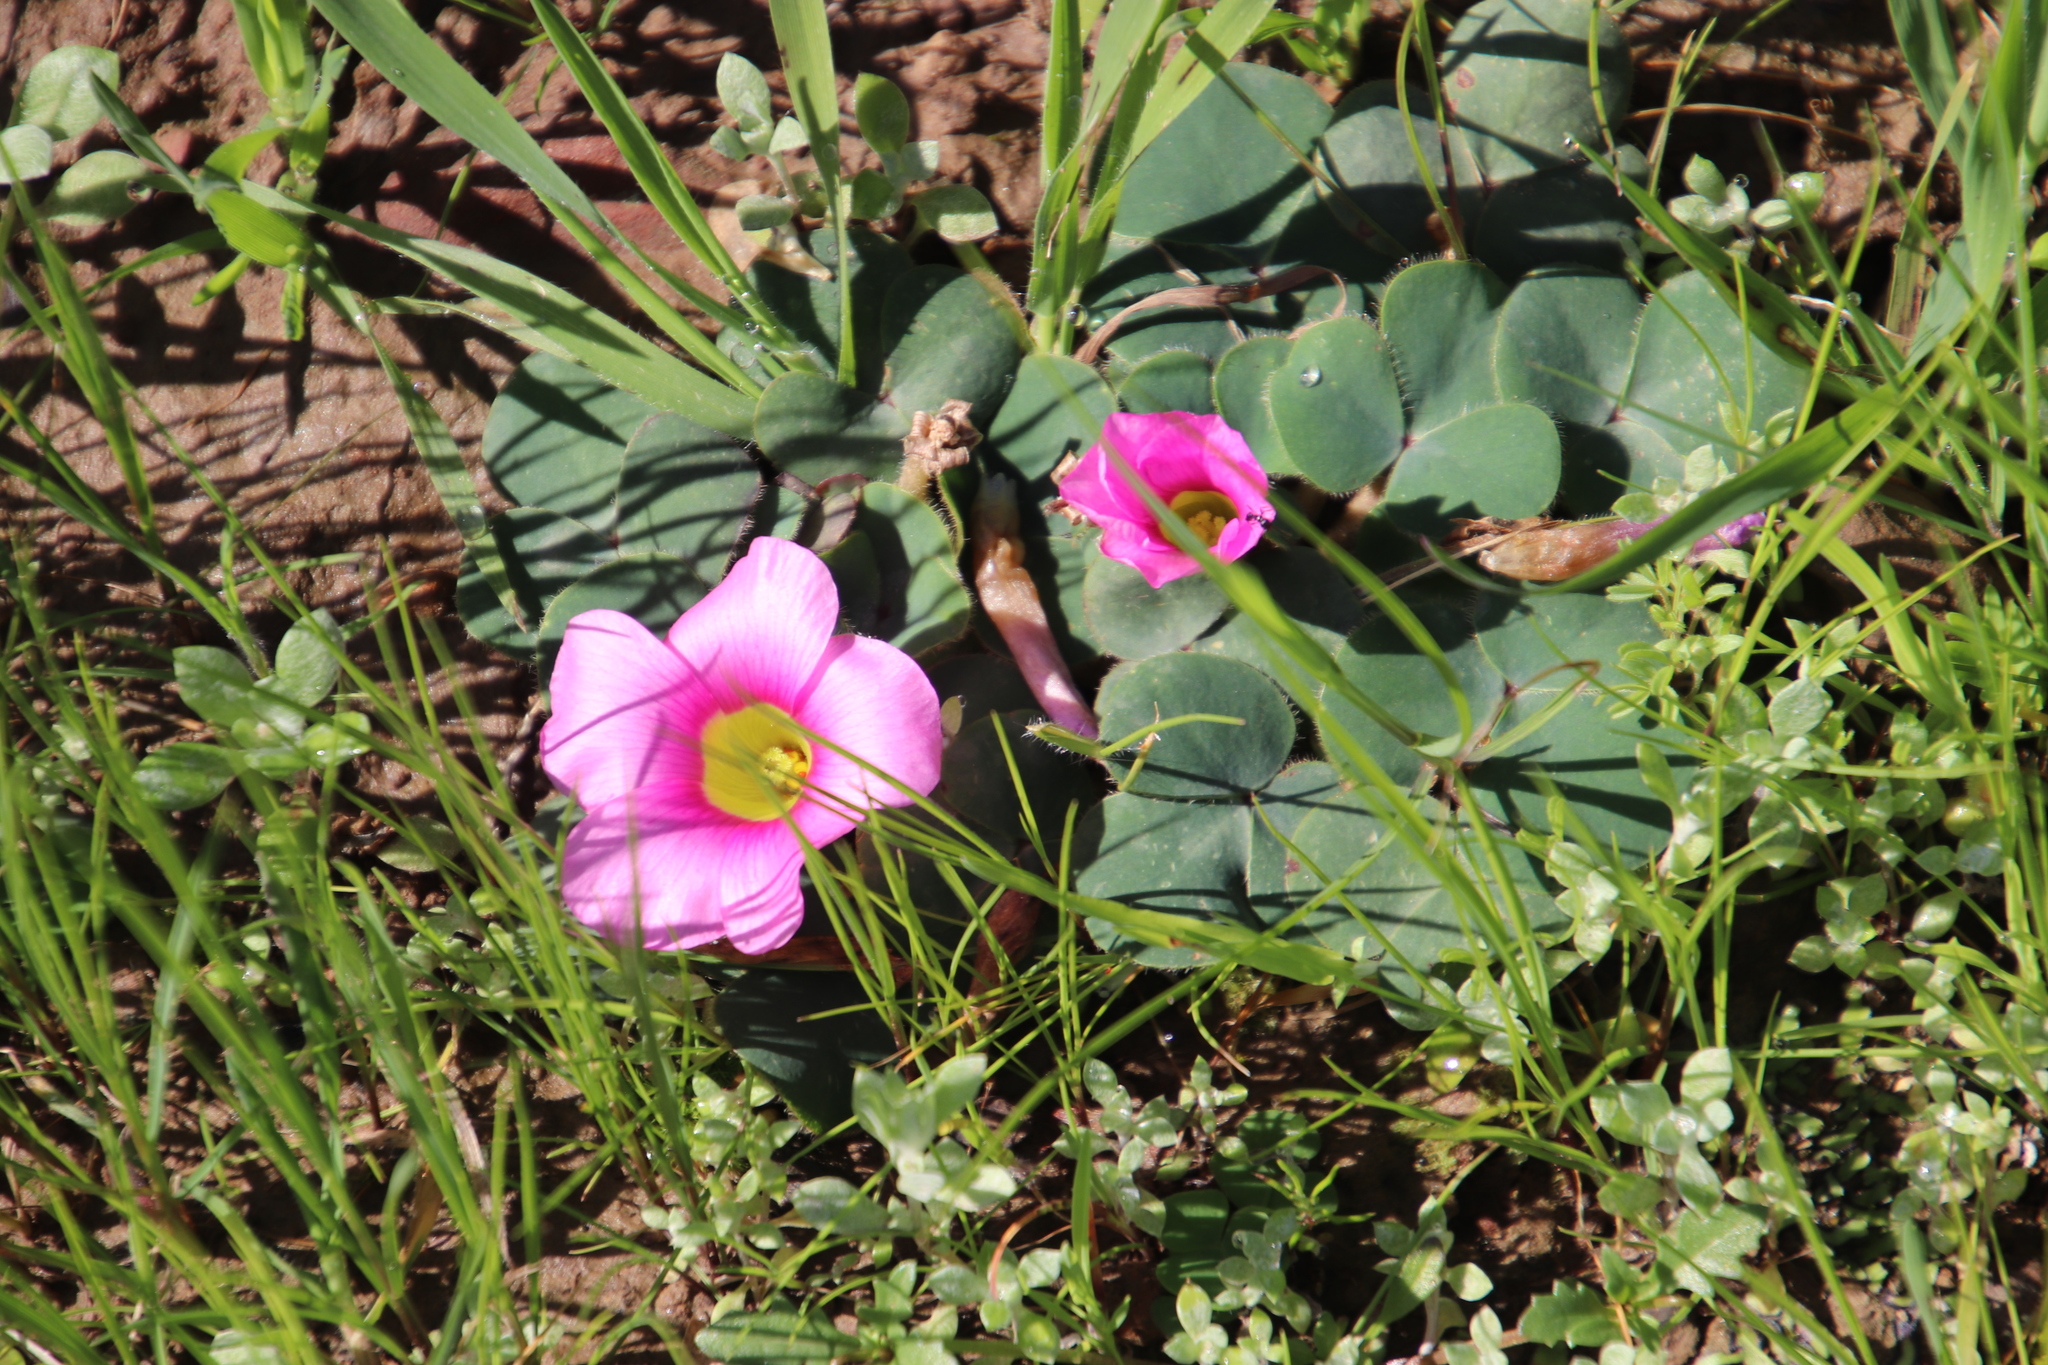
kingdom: Plantae
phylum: Tracheophyta
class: Magnoliopsida
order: Oxalidales
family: Oxalidaceae
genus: Oxalis
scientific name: Oxalis purpurea
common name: Purple woodsorrel
